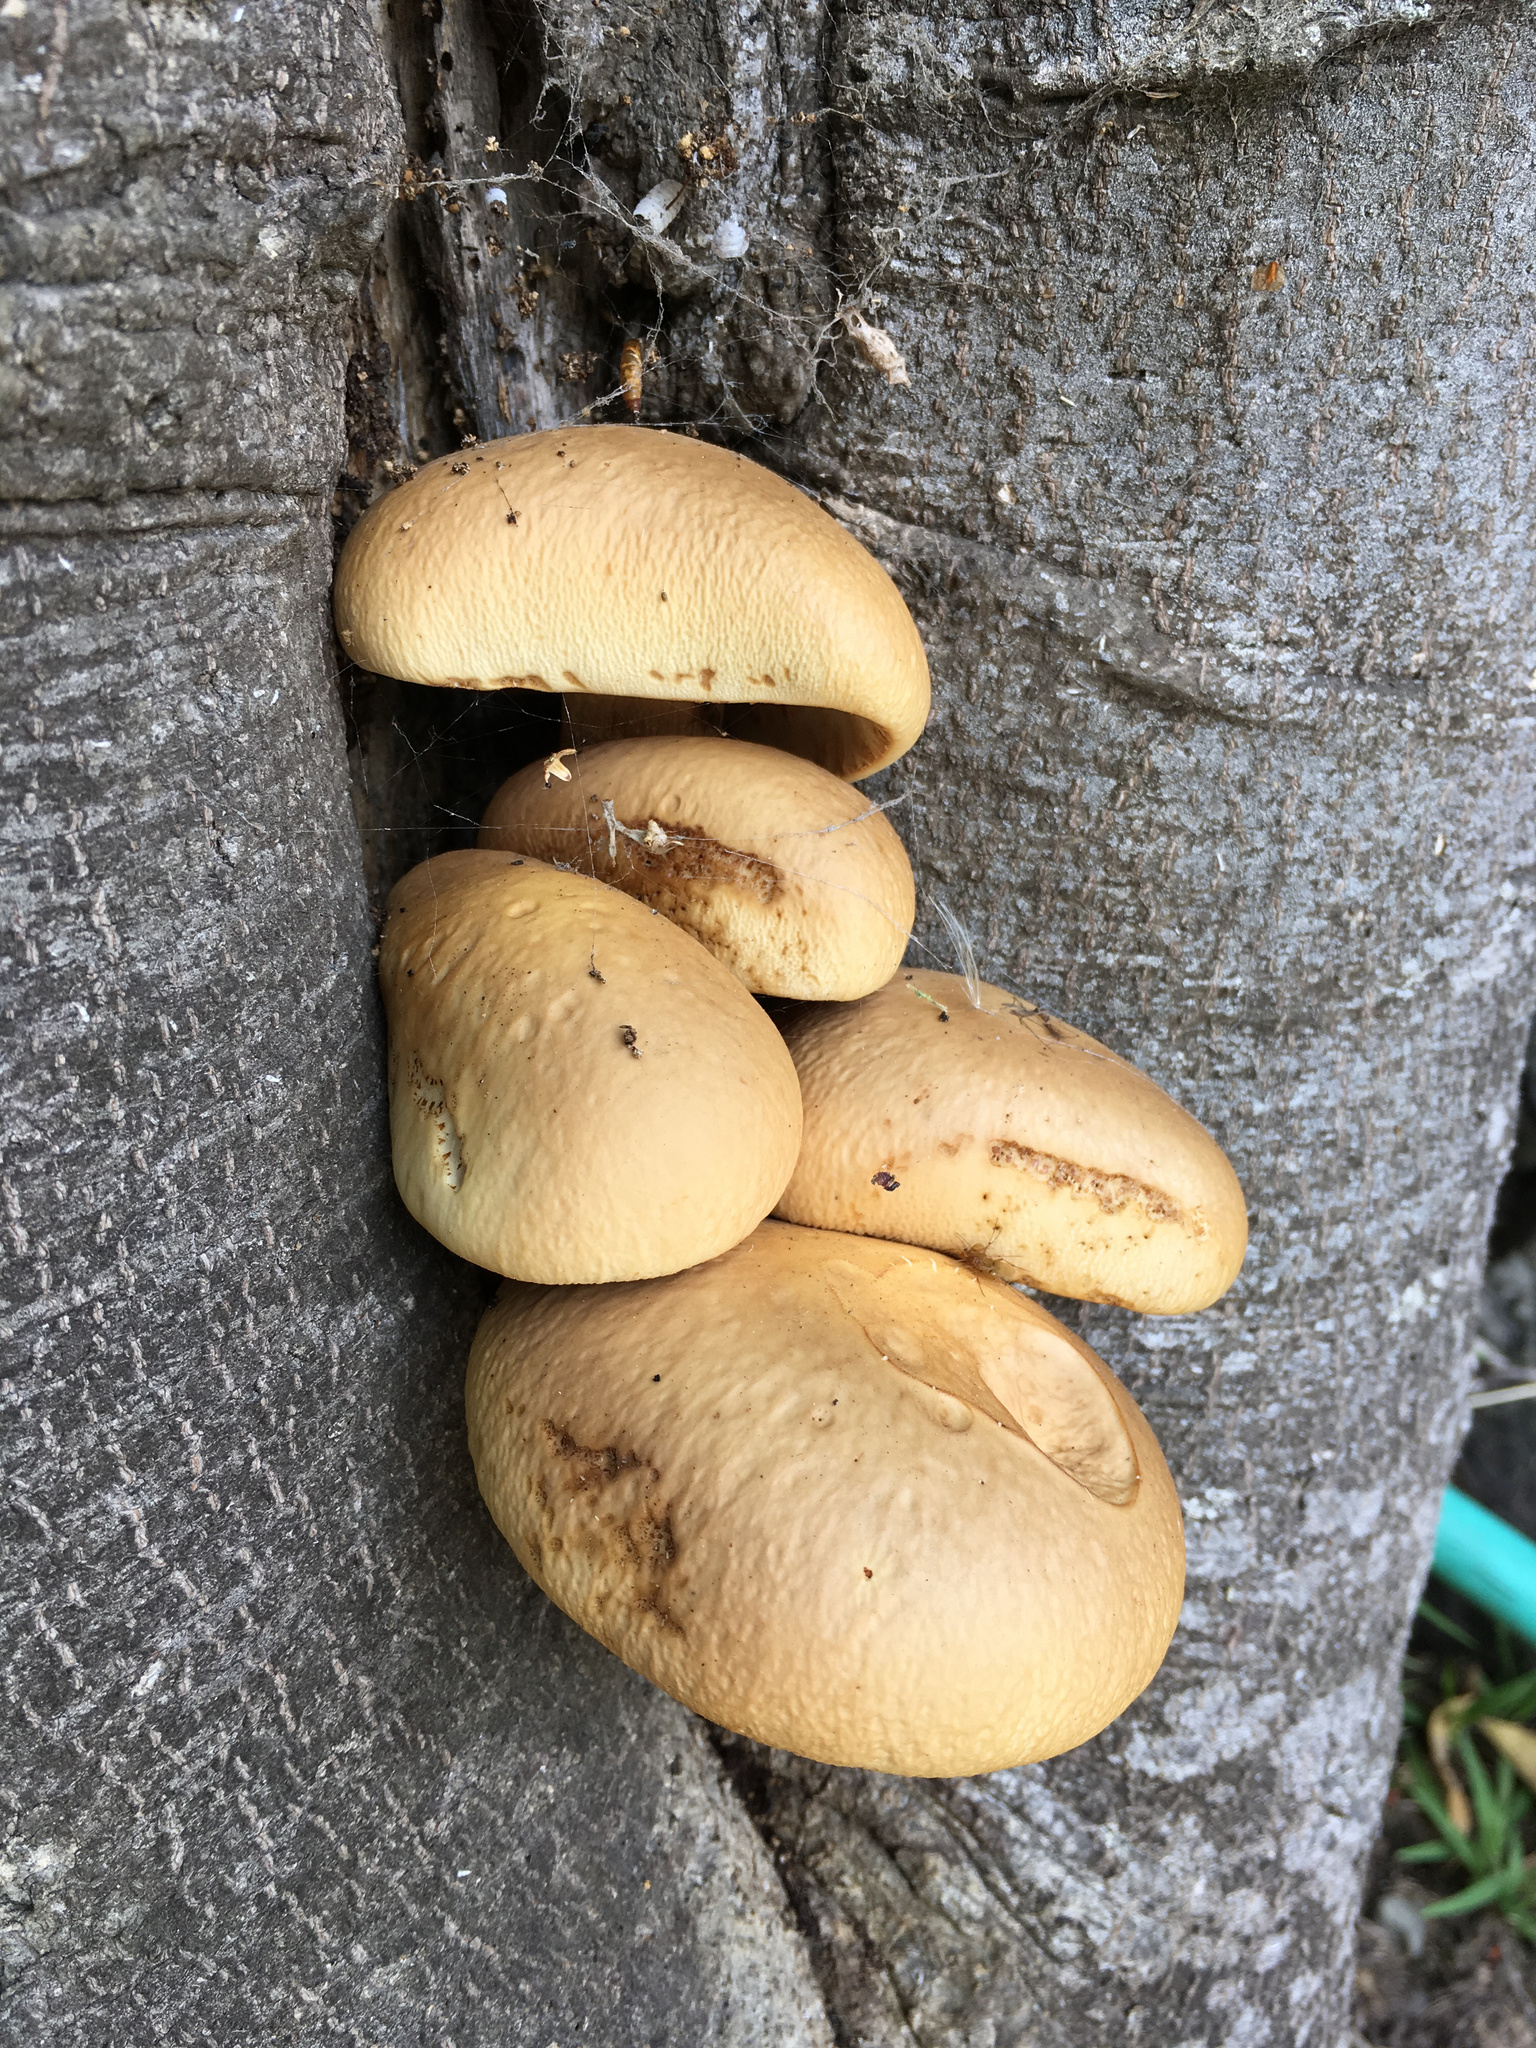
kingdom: Fungi
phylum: Basidiomycota
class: Agaricomycetes
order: Agaricales
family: Tubariaceae
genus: Cyclocybe
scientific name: Cyclocybe parasitica
